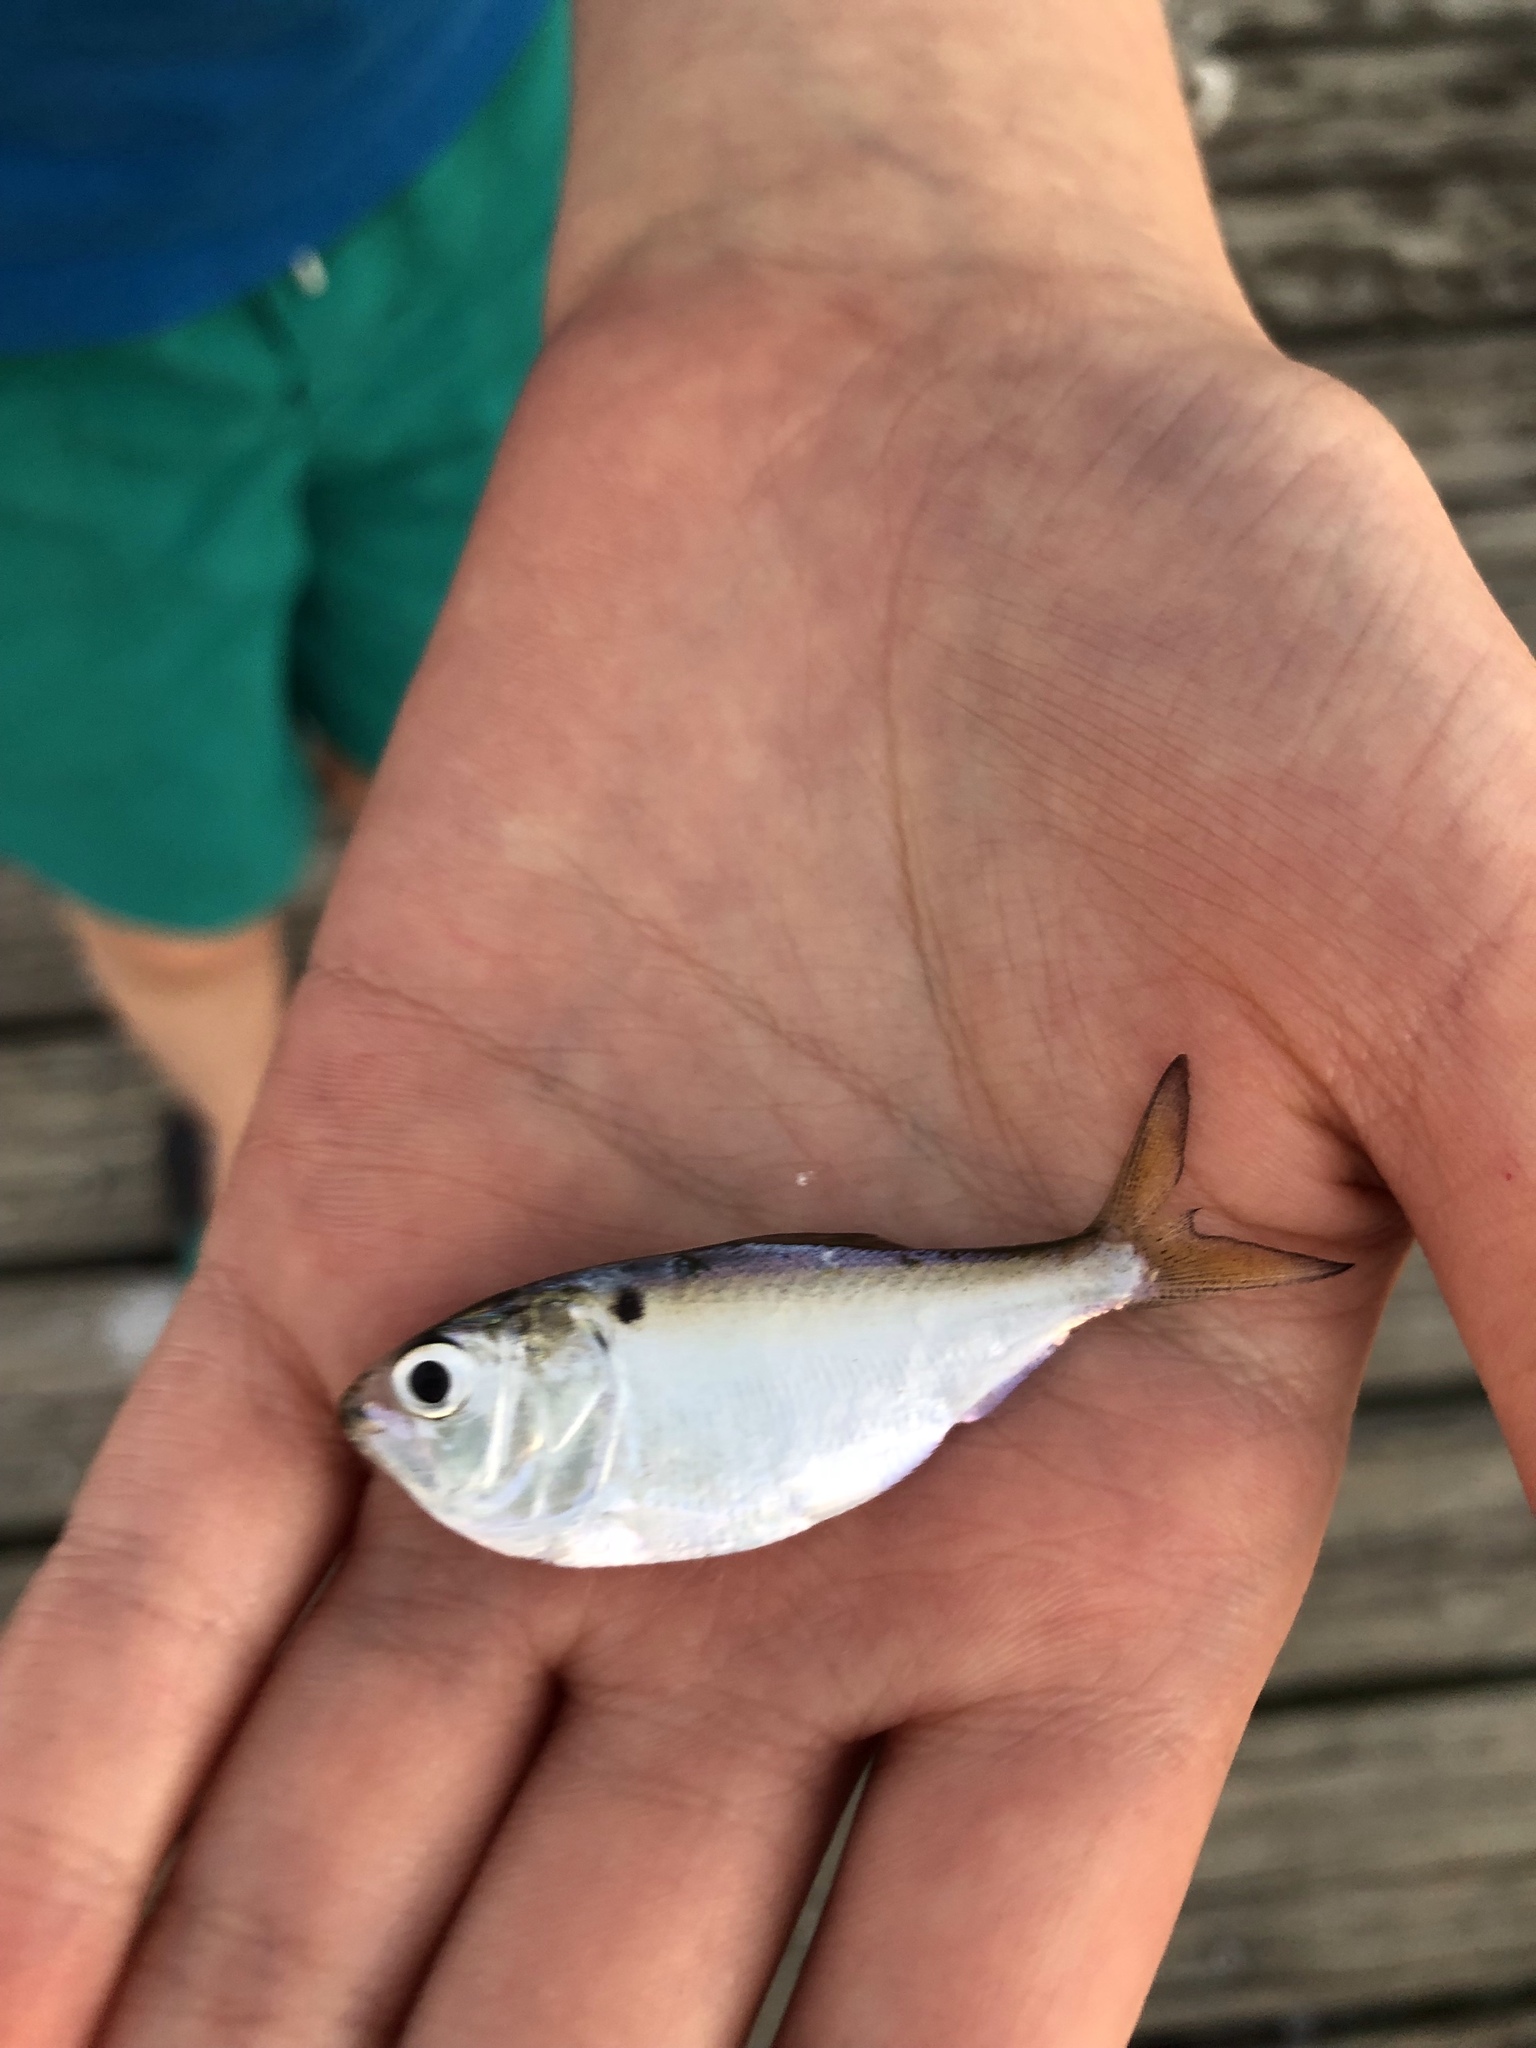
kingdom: Animalia
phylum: Chordata
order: Clupeiformes
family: Clupeidae
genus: Brevoortia
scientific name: Brevoortia patronus
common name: Gulf menhaden
